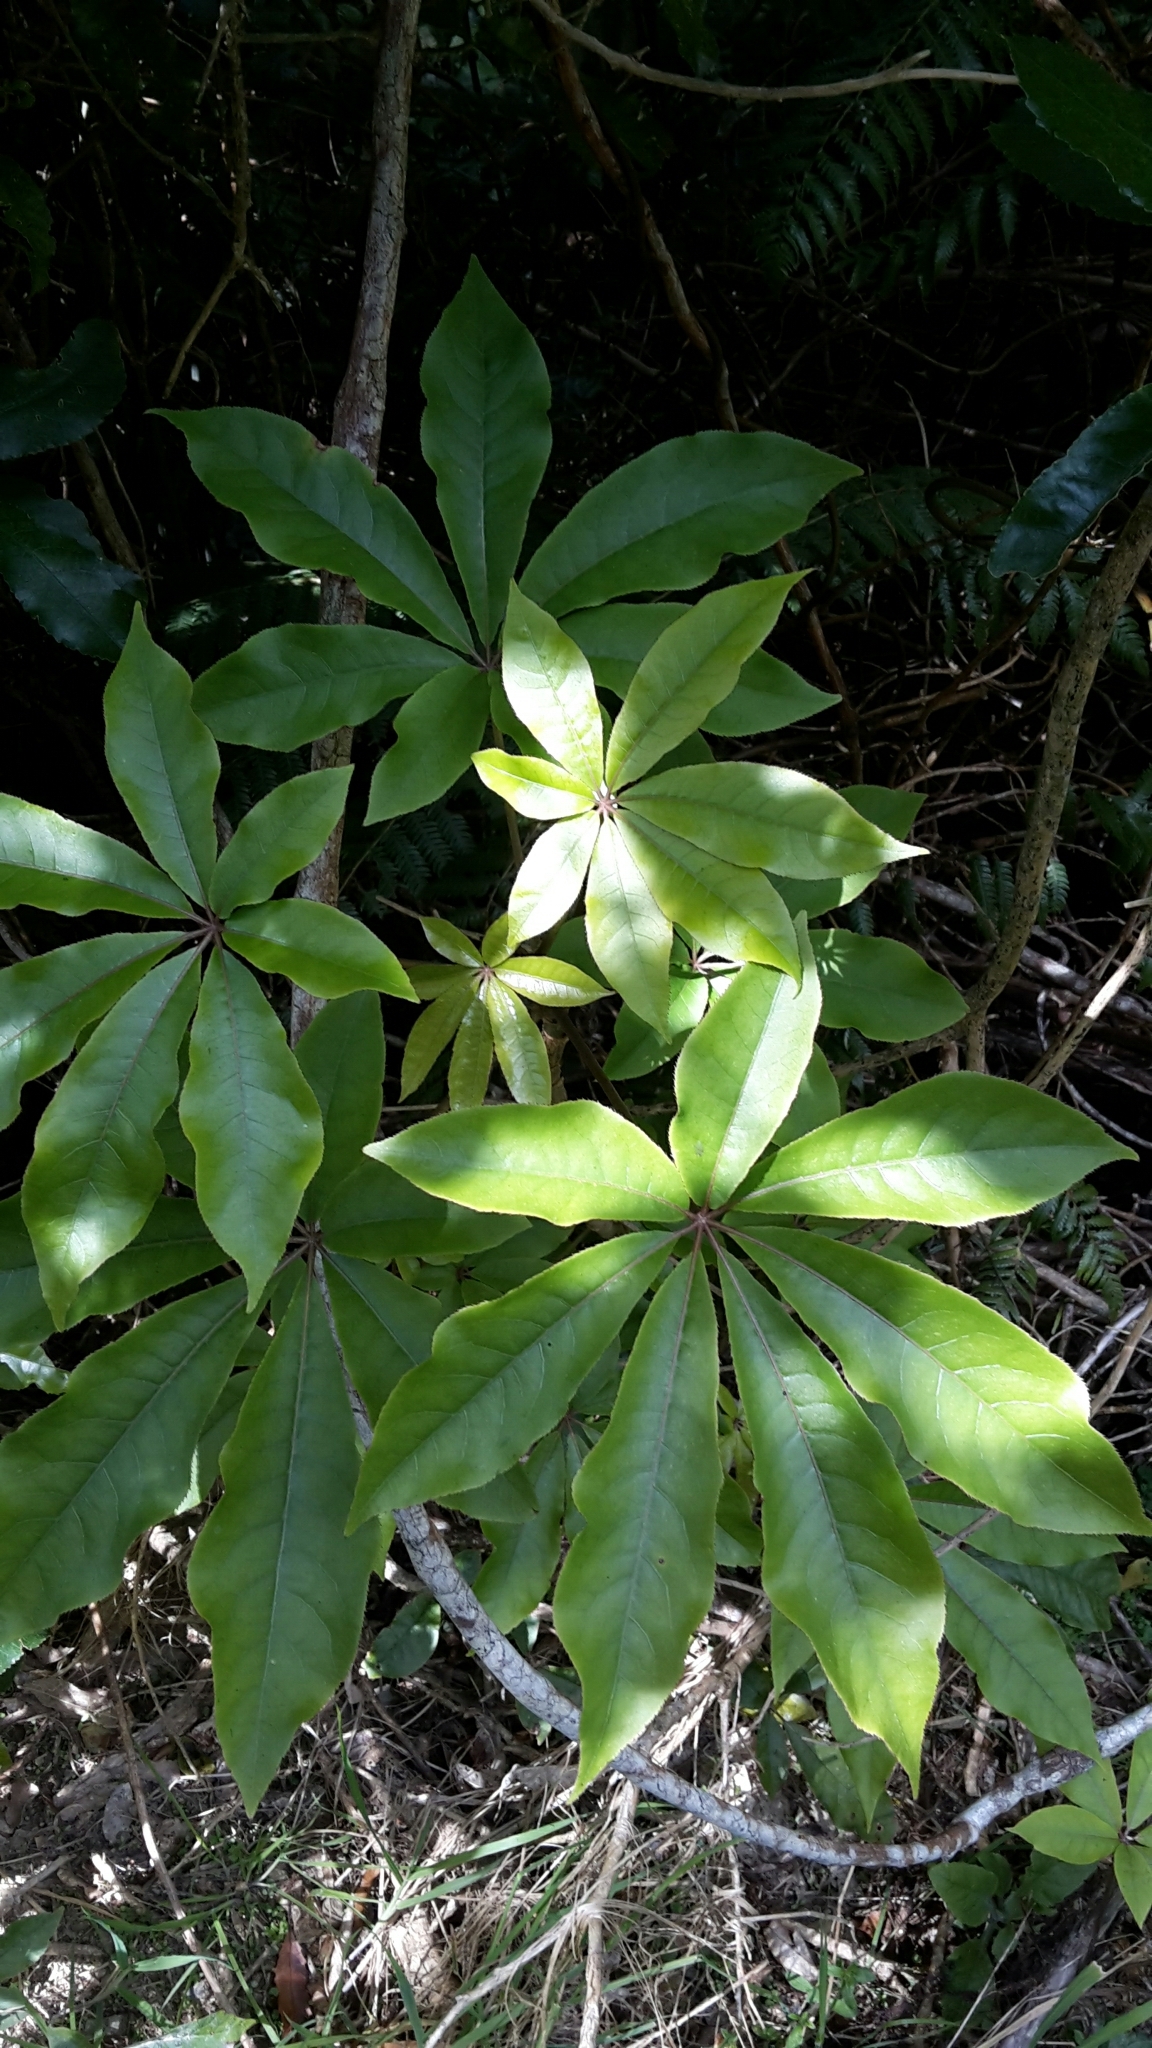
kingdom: Plantae
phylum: Tracheophyta
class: Magnoliopsida
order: Apiales
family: Araliaceae
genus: Schefflera
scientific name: Schefflera digitata
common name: Pate
